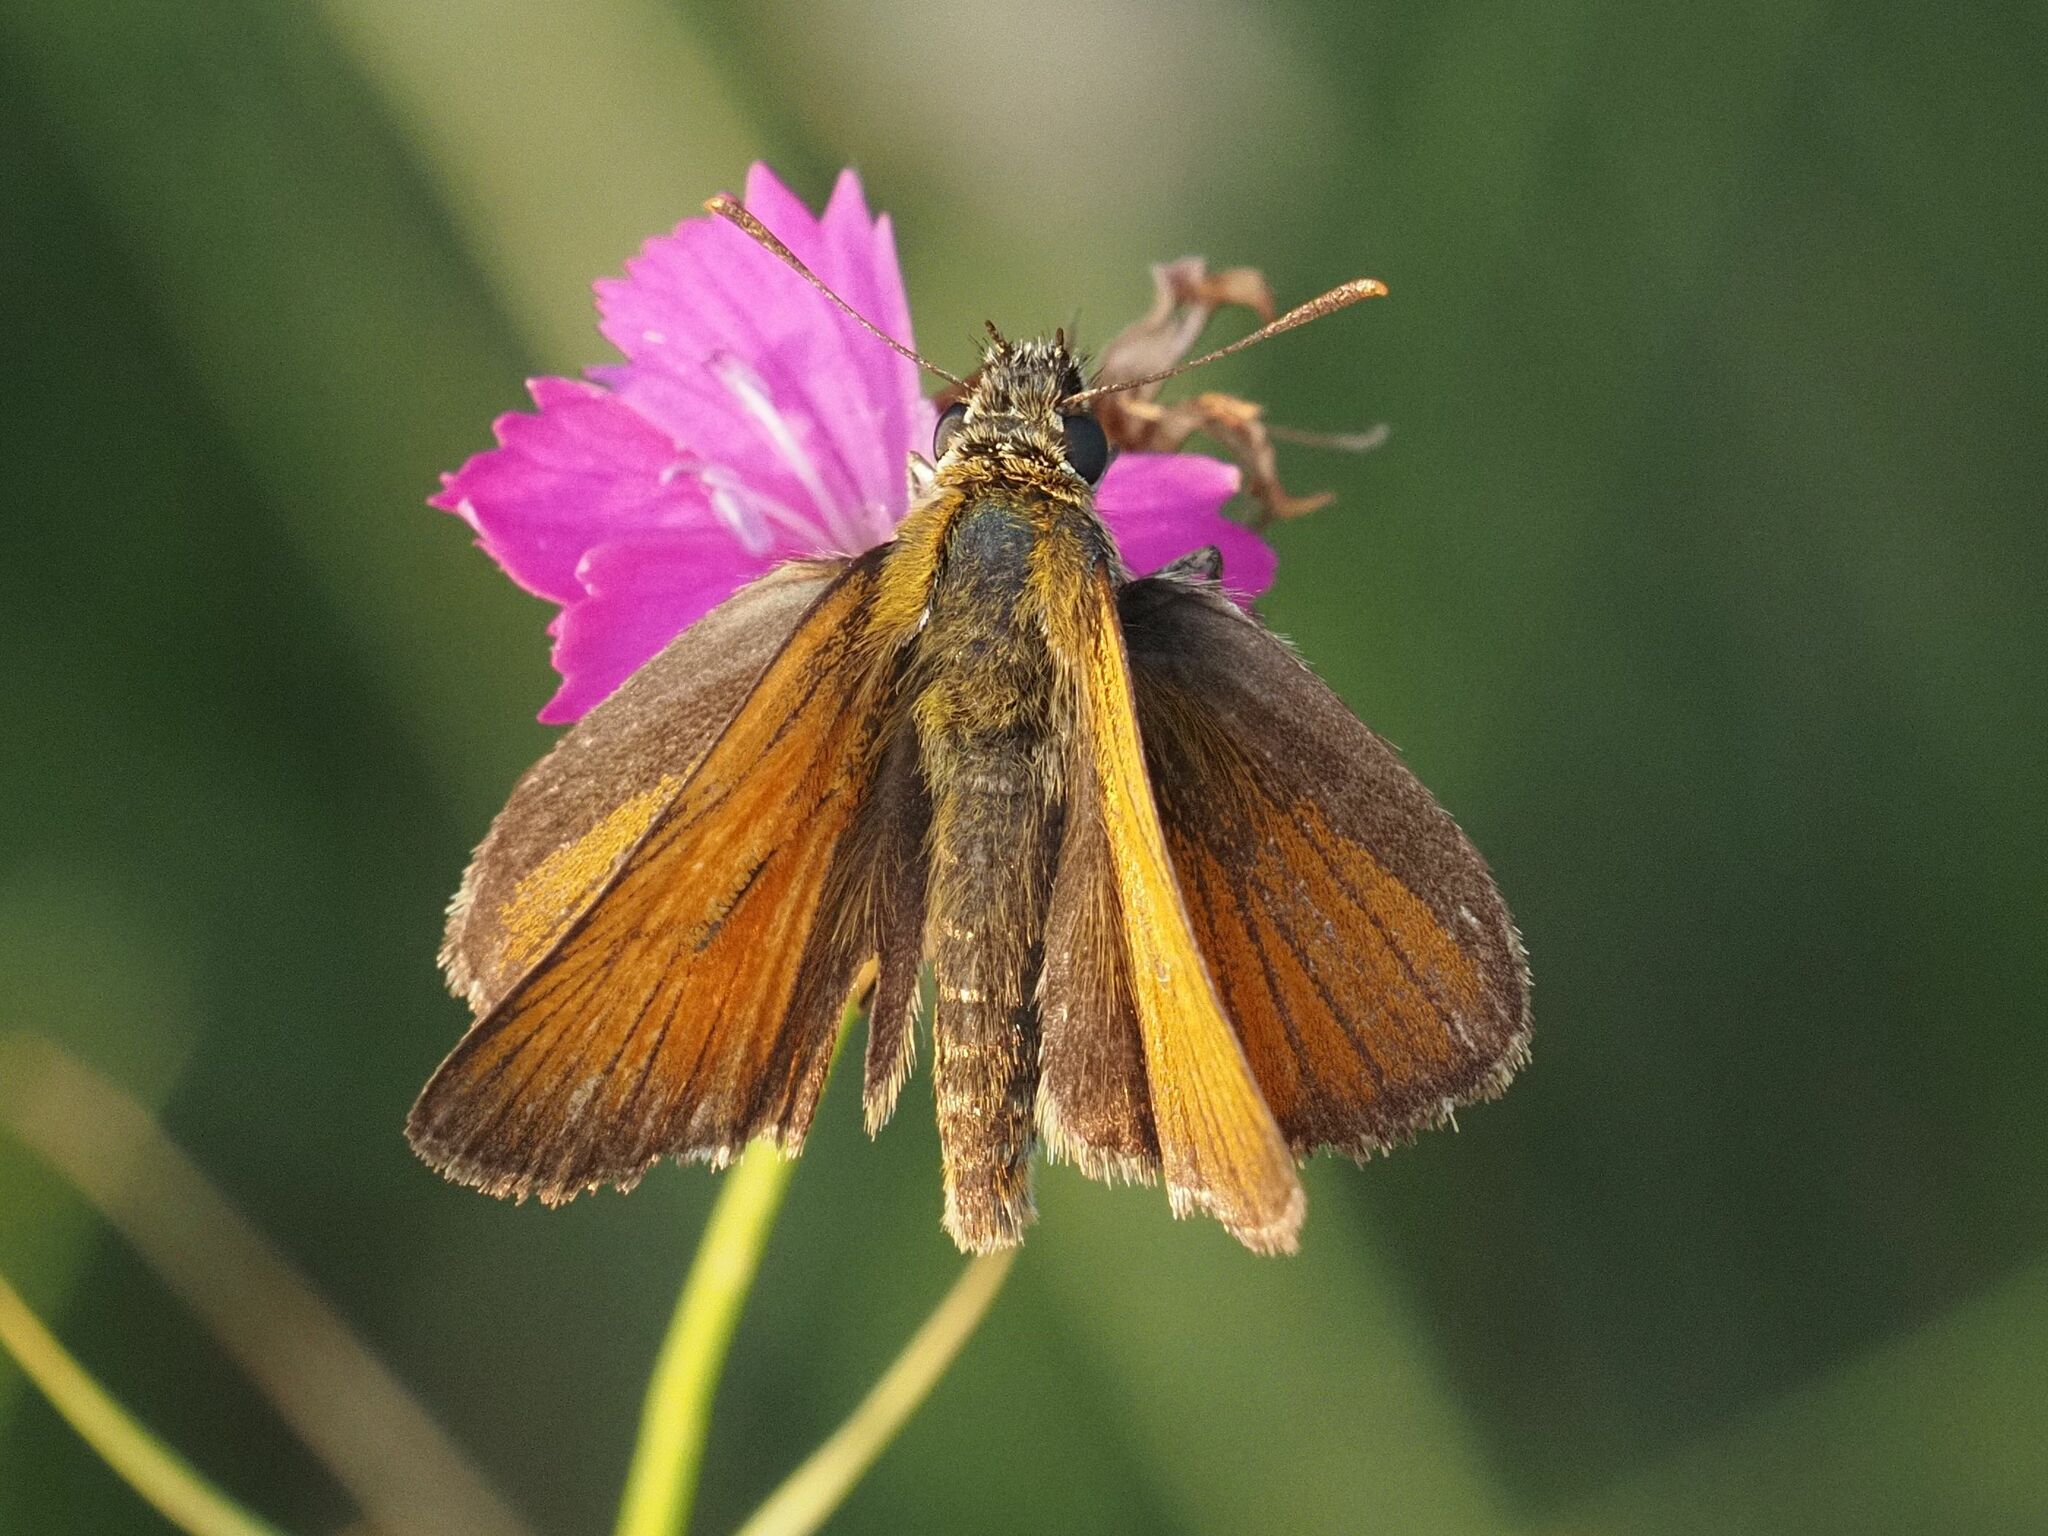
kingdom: Animalia
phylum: Arthropoda
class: Insecta
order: Lepidoptera
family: Hesperiidae
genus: Thymelicus
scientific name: Thymelicus sylvestris
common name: Small skipper
